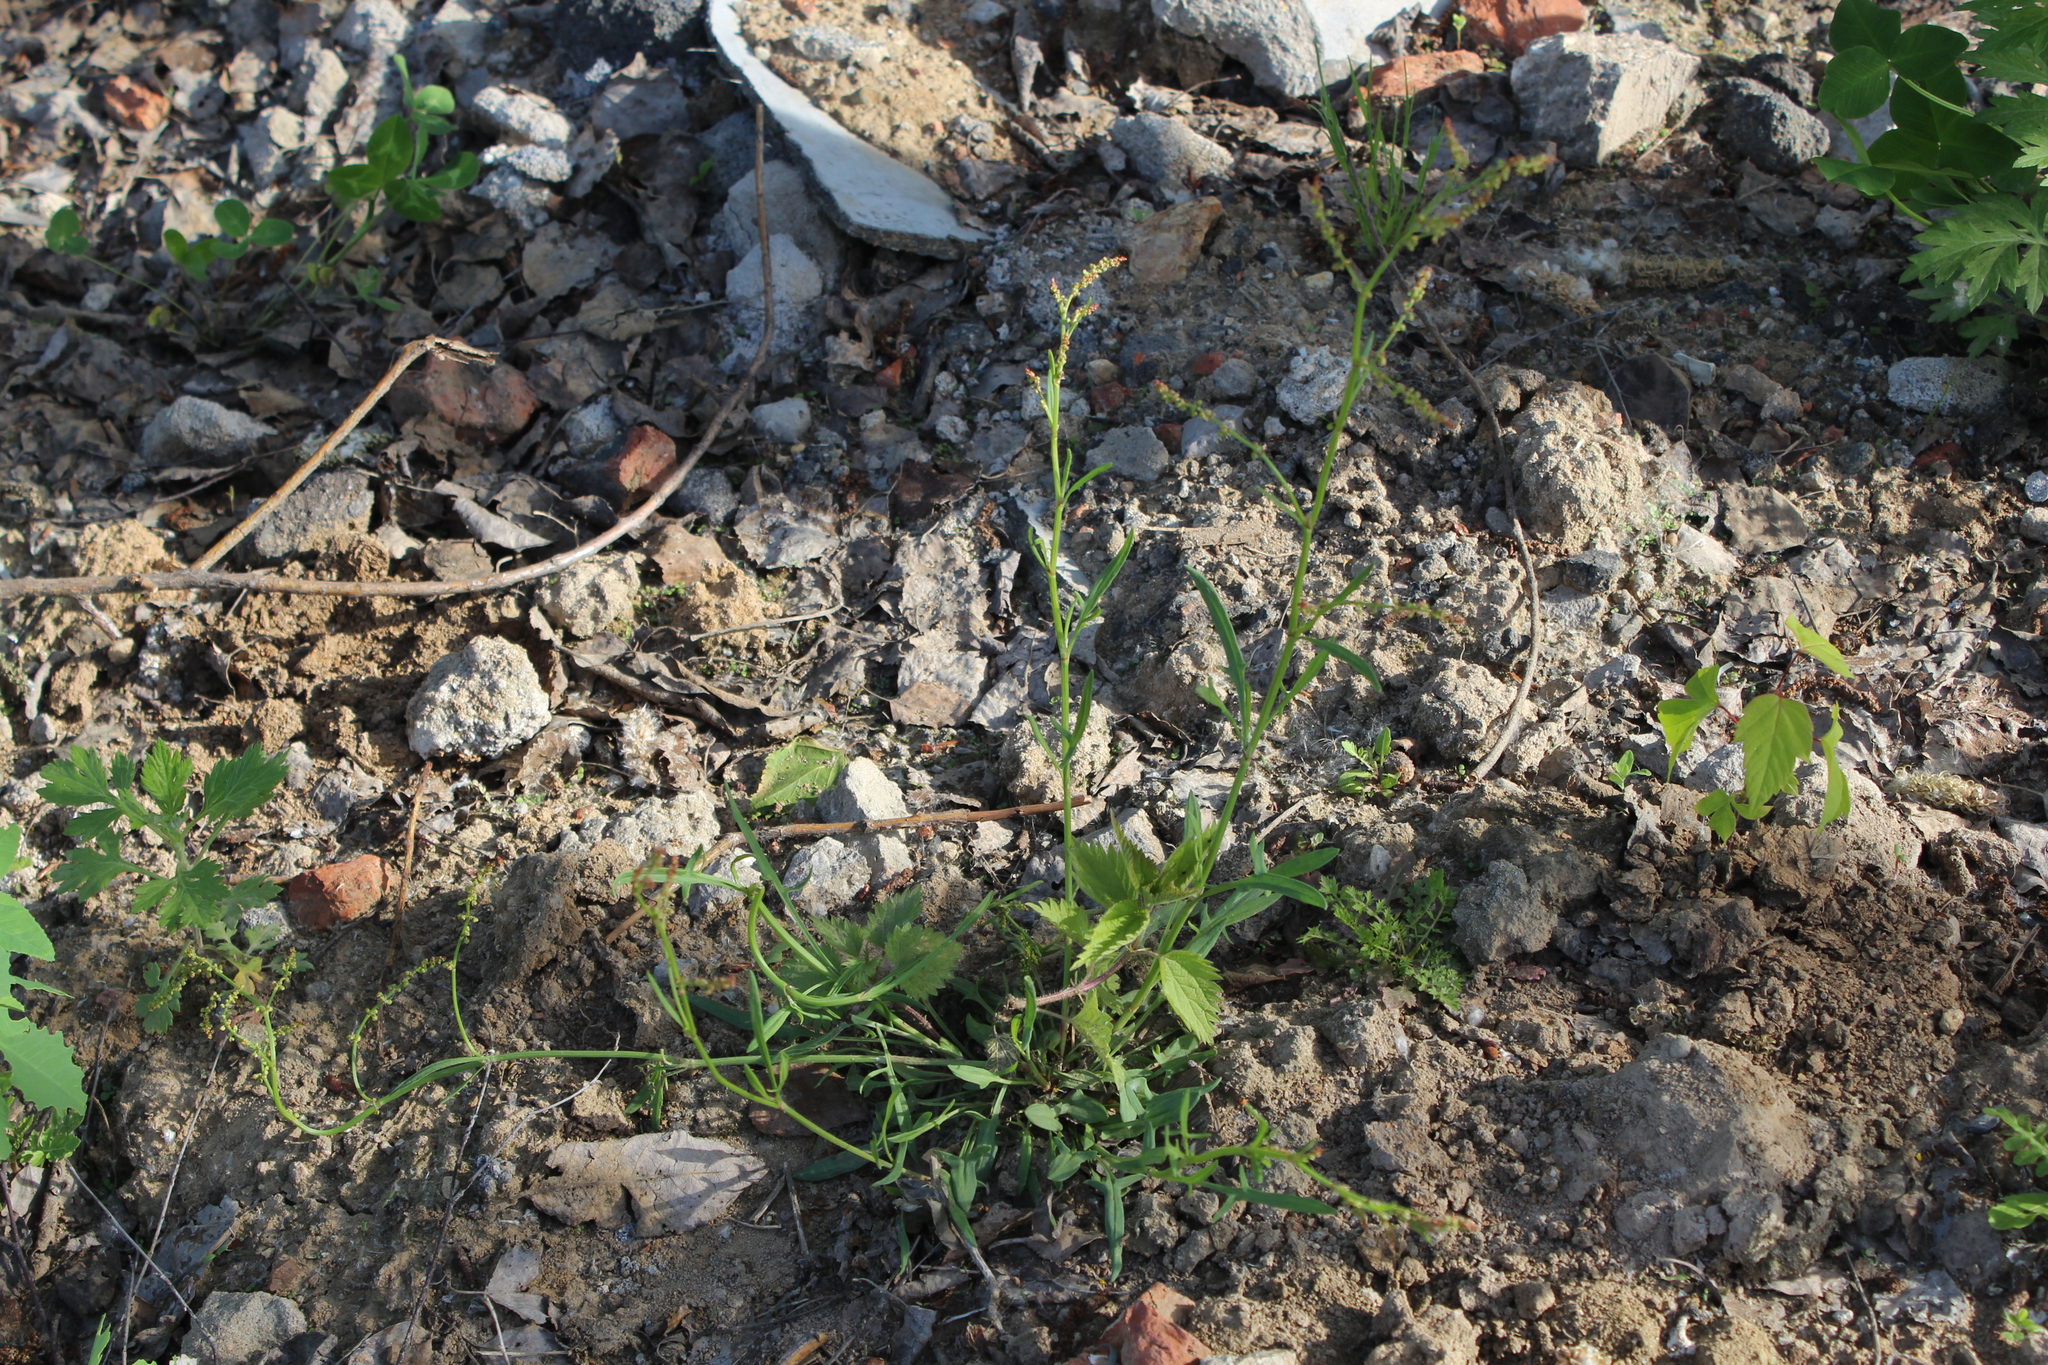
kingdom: Plantae
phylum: Tracheophyta
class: Magnoliopsida
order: Caryophyllales
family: Polygonaceae
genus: Rumex
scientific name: Rumex acetosella
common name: Common sheep sorrel
